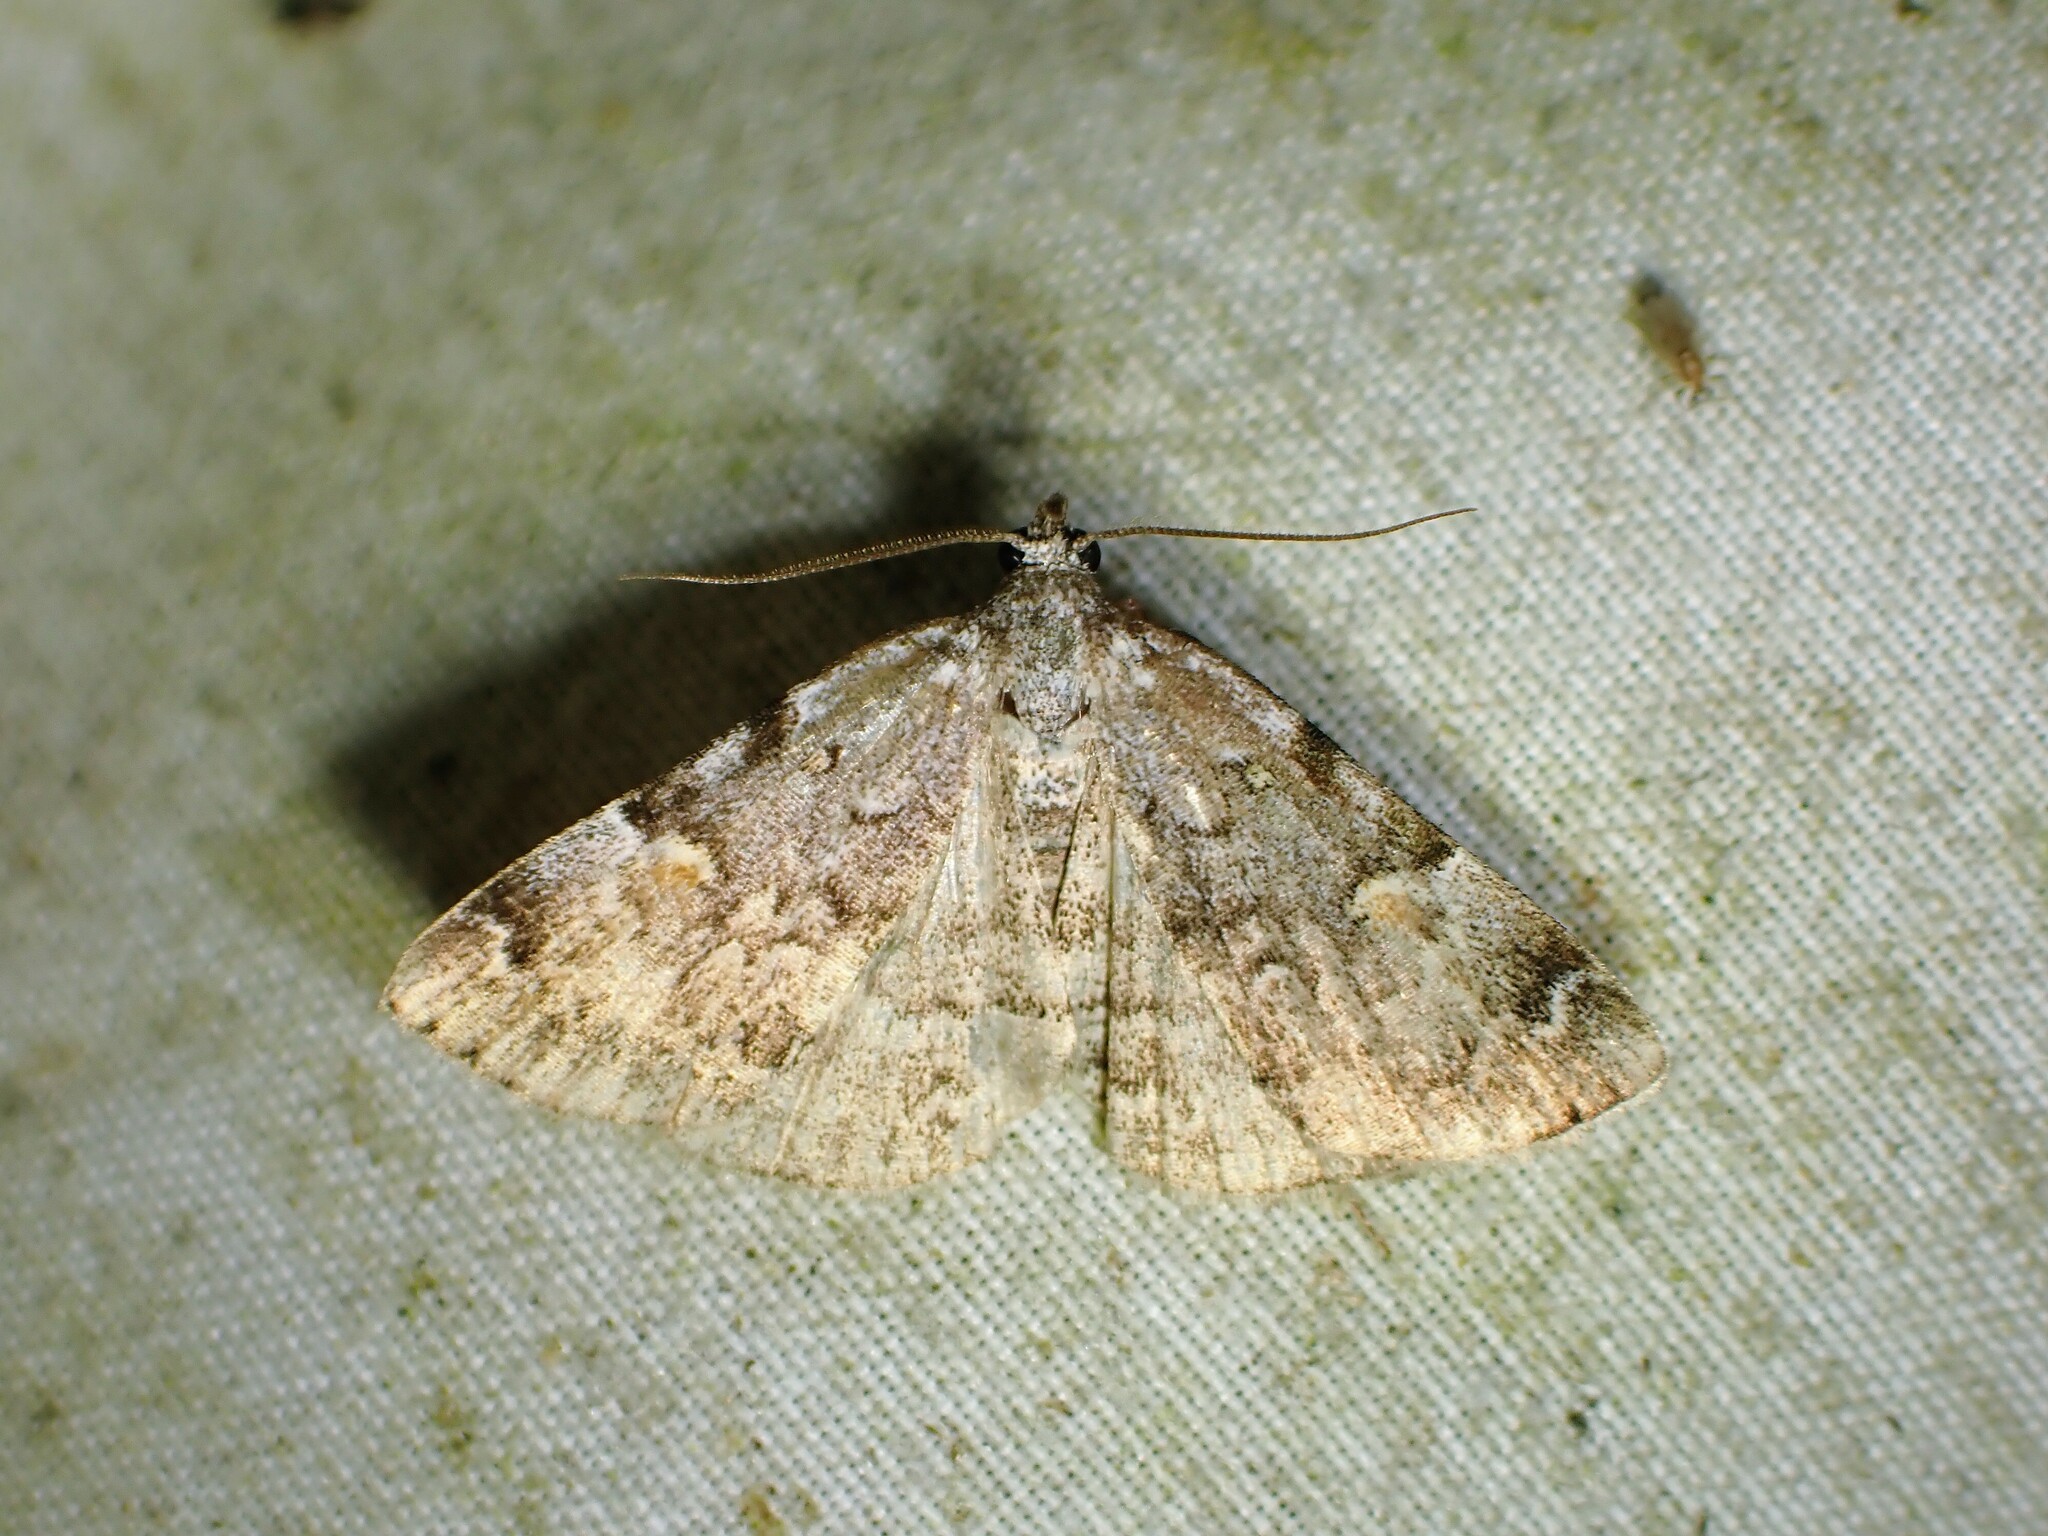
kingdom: Animalia
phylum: Arthropoda
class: Insecta
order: Lepidoptera
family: Erebidae
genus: Idia
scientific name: Idia americalis
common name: American idia moth
